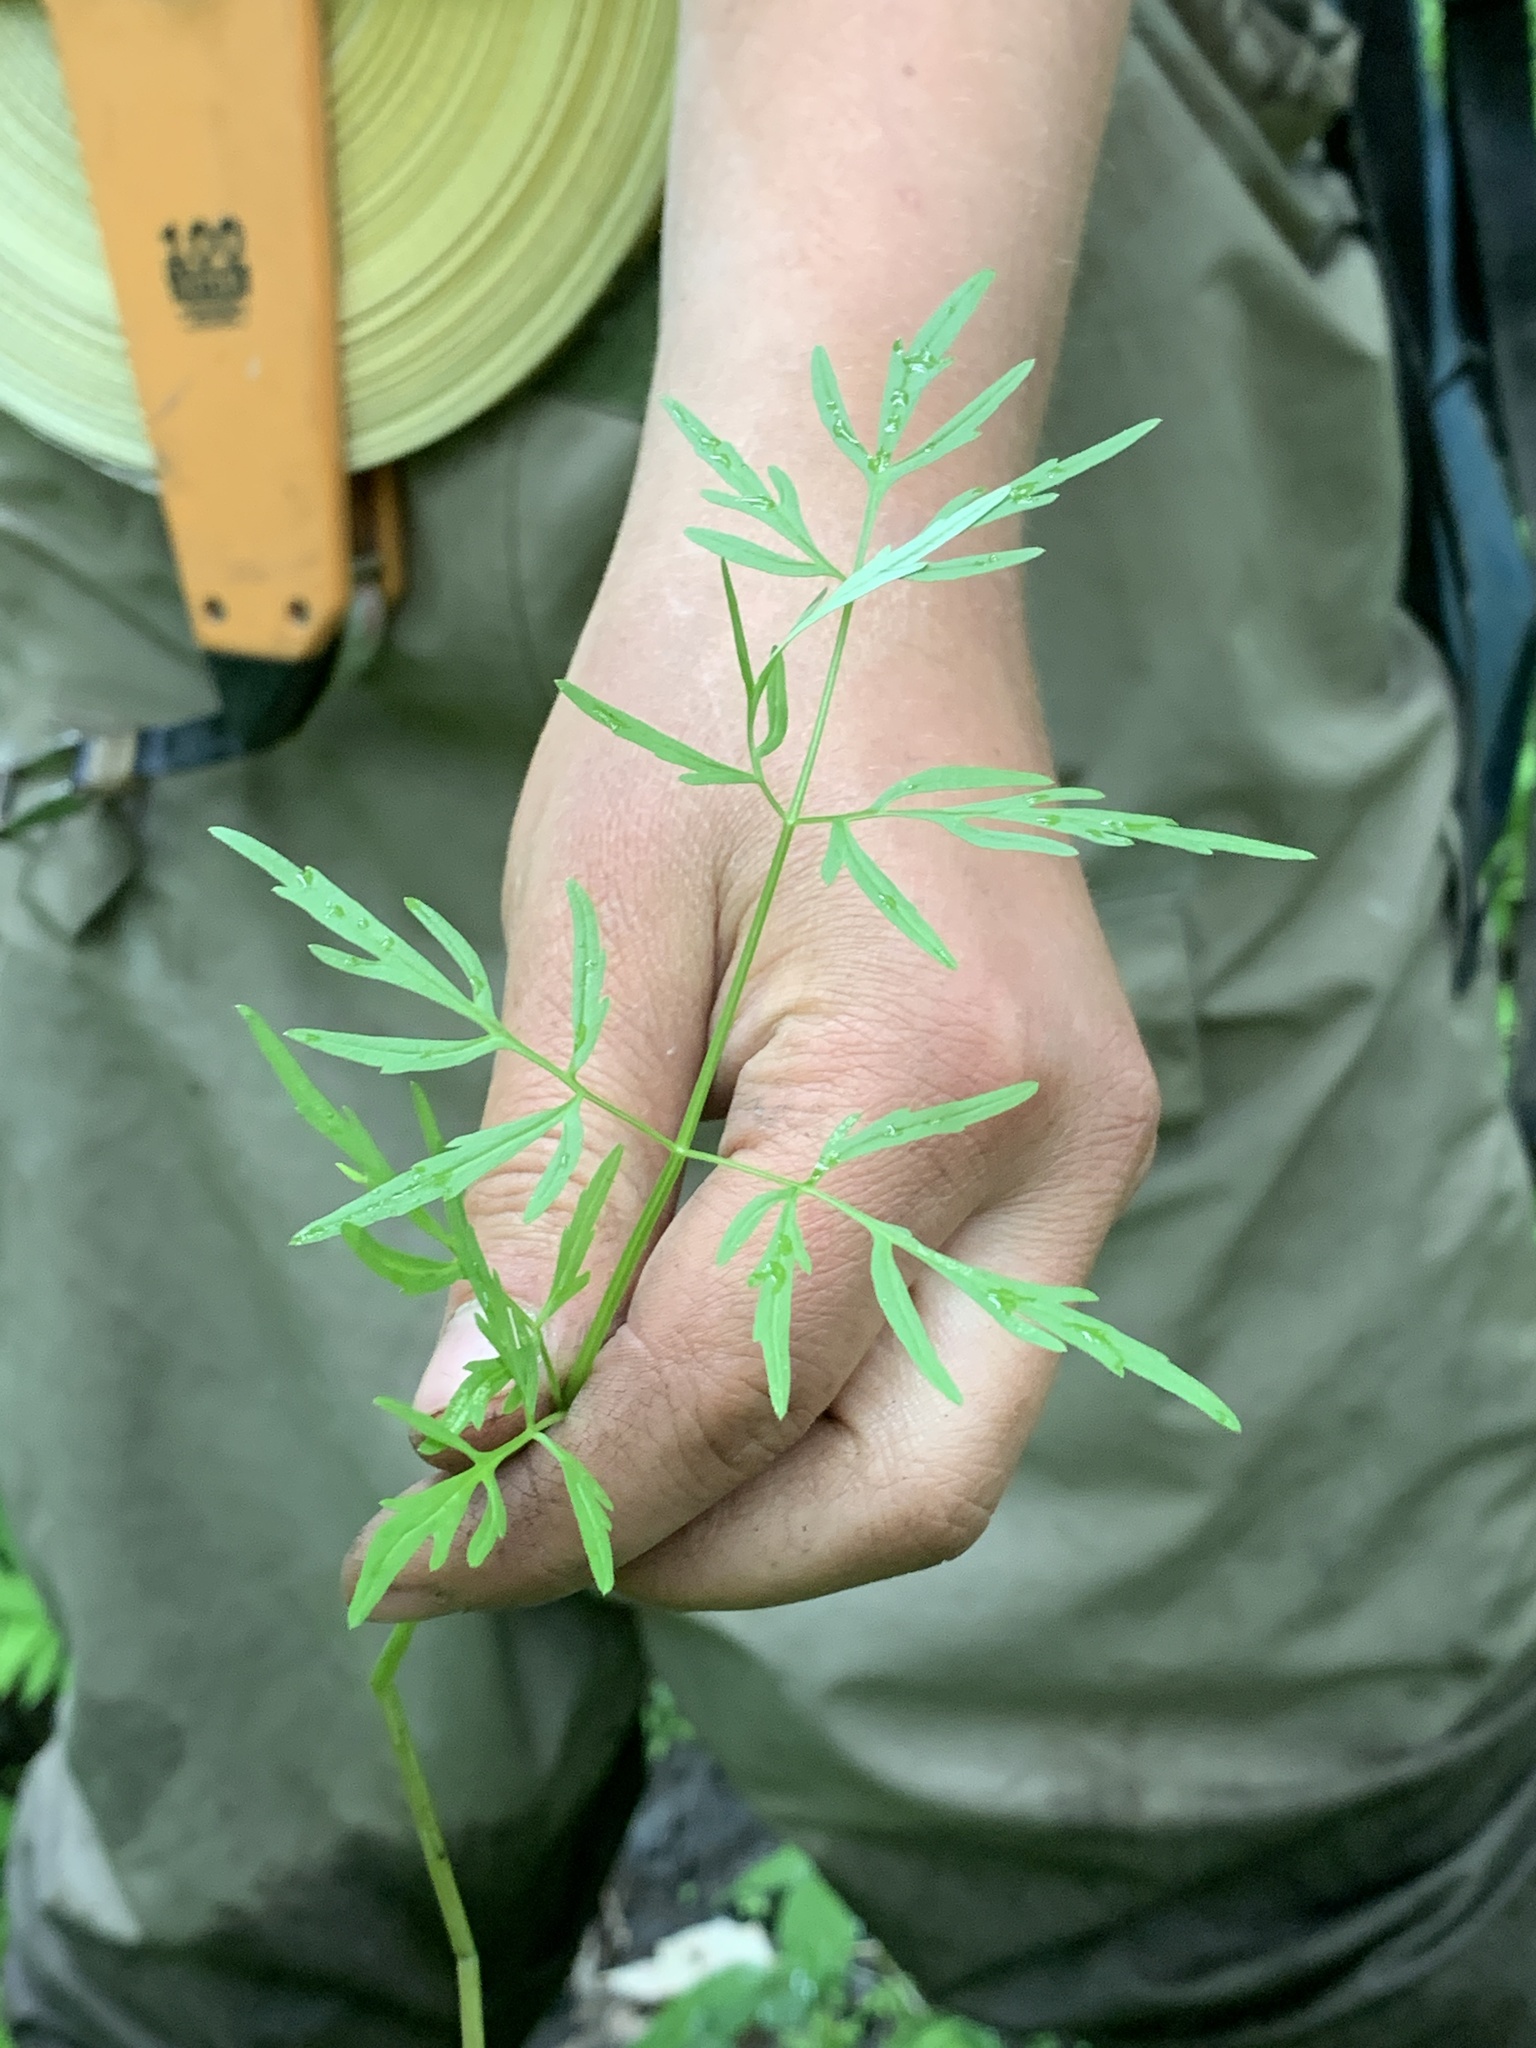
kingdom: Plantae
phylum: Tracheophyta
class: Magnoliopsida
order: Apiales
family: Apiaceae
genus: Cicuta
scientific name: Cicuta bulbifera
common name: Bulb-bearing water-hemlock
